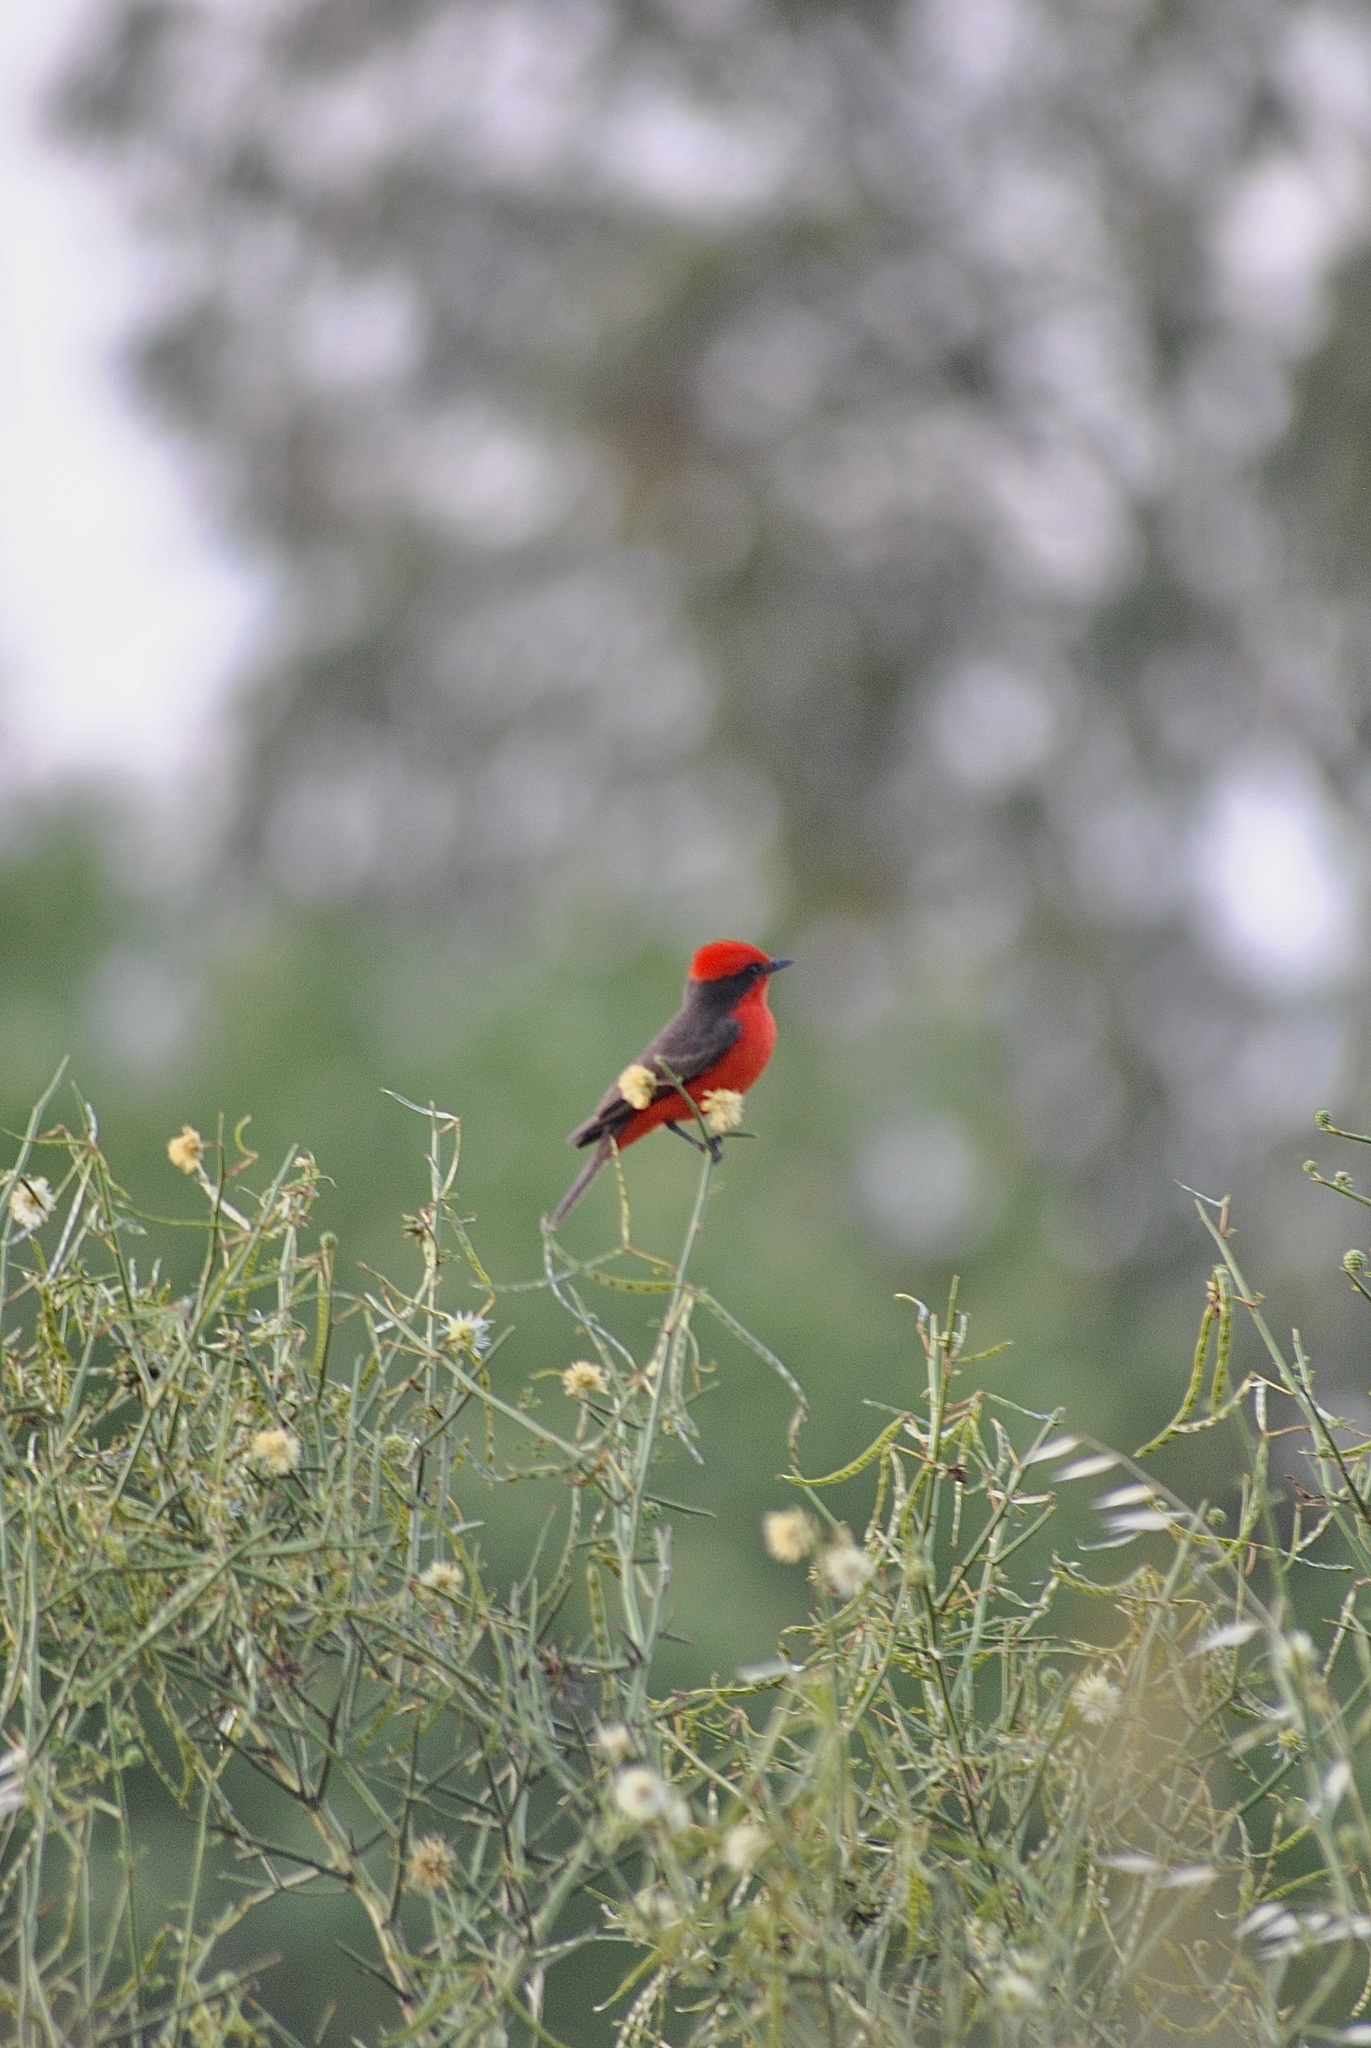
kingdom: Animalia
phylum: Chordata
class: Aves
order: Passeriformes
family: Tyrannidae
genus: Pyrocephalus
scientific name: Pyrocephalus rubinus
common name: Vermilion flycatcher
